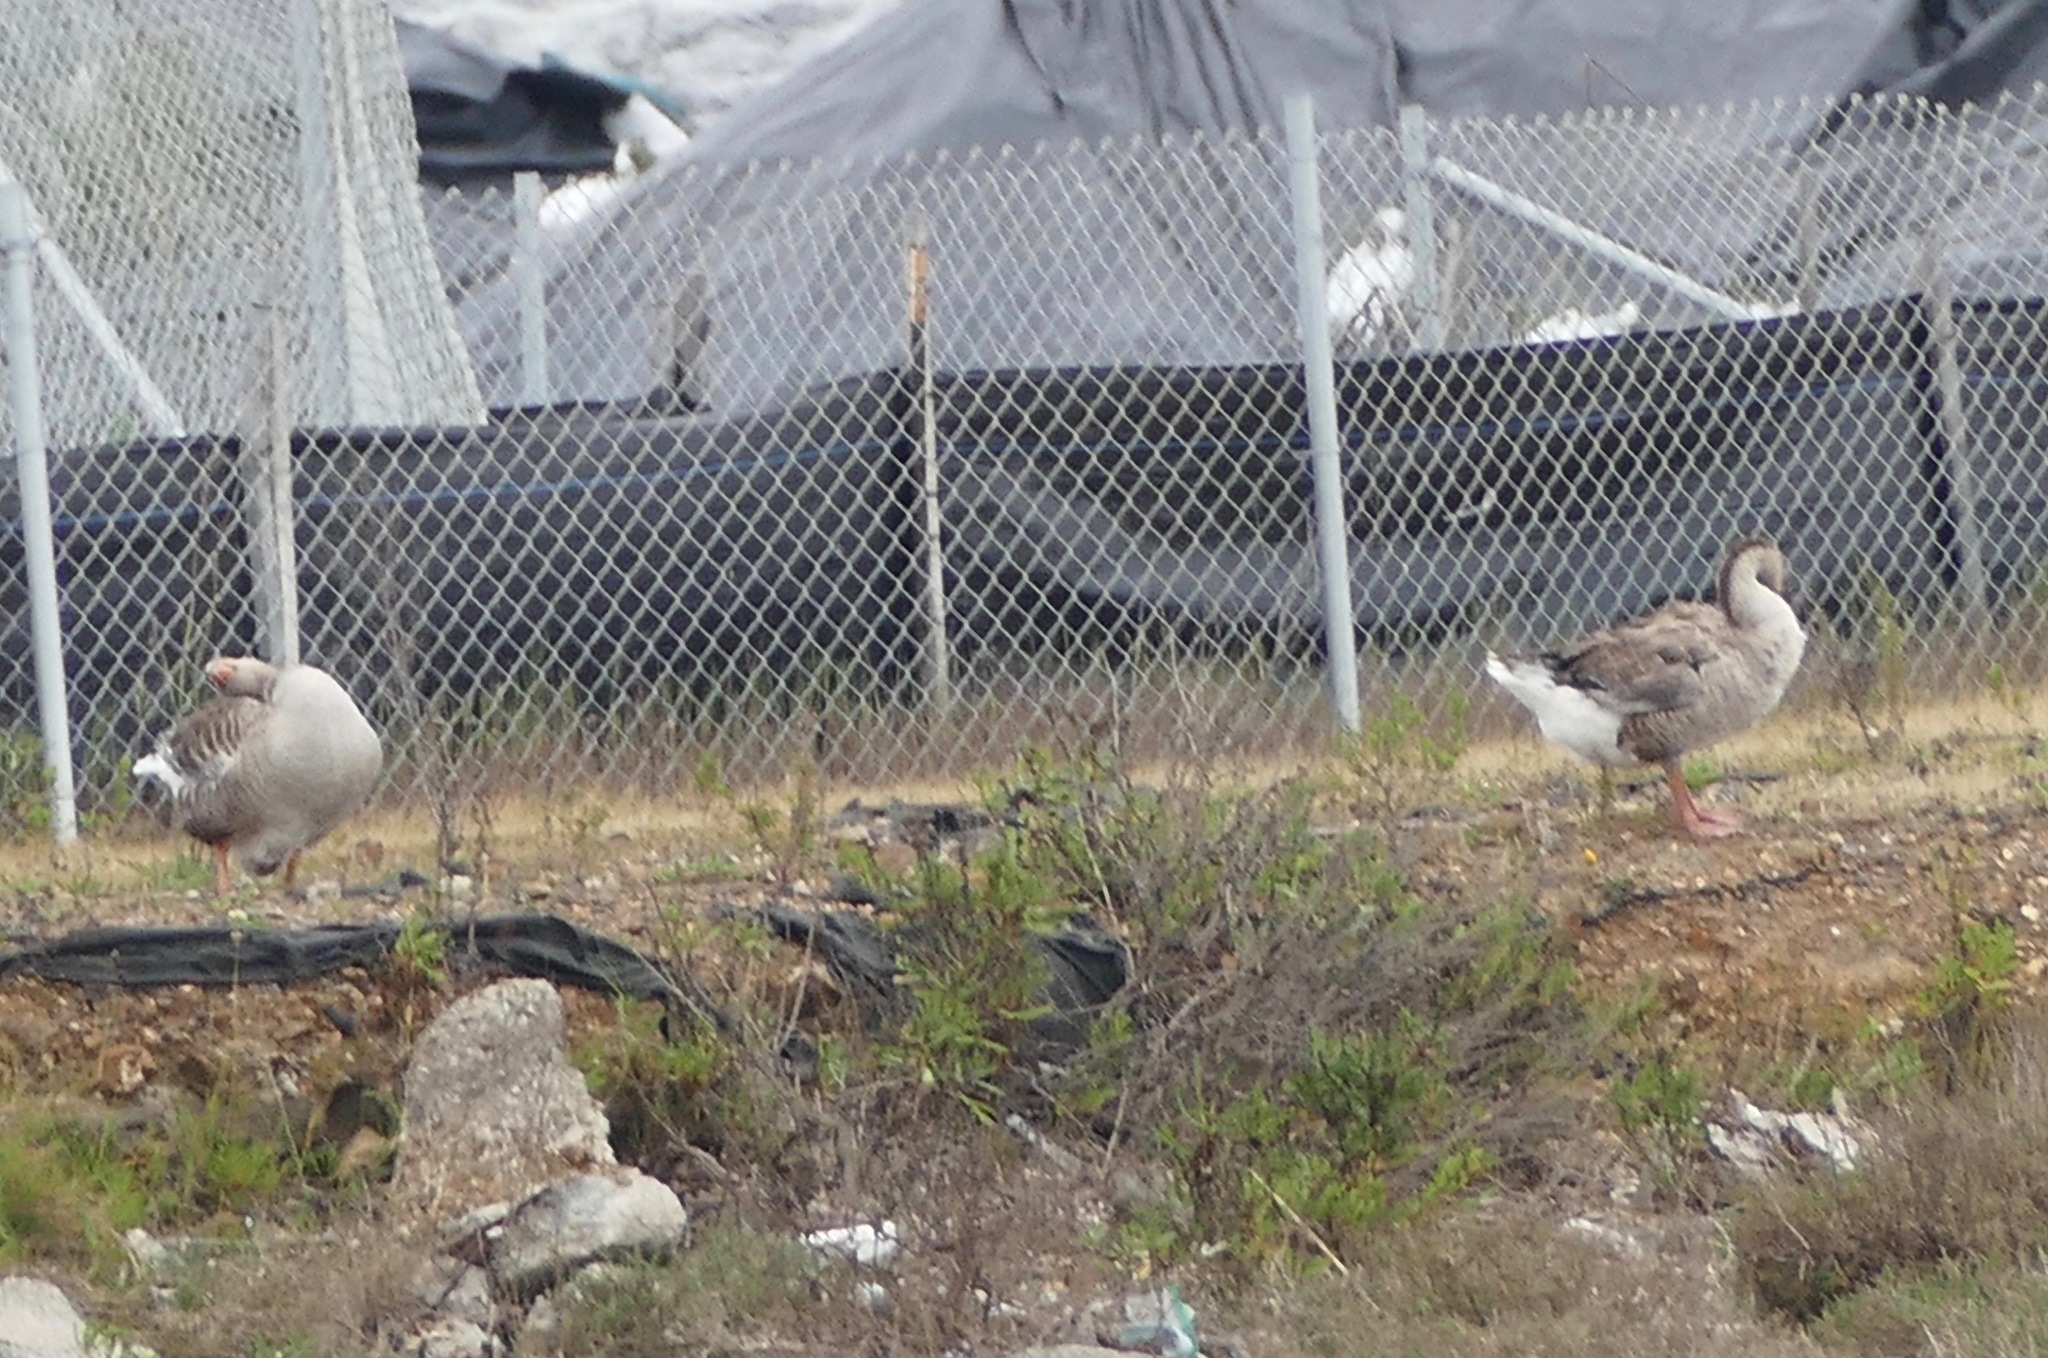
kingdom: Animalia
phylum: Chordata
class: Aves
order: Anseriformes
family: Anatidae
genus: Anser
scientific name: Anser anser
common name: Greylag goose
